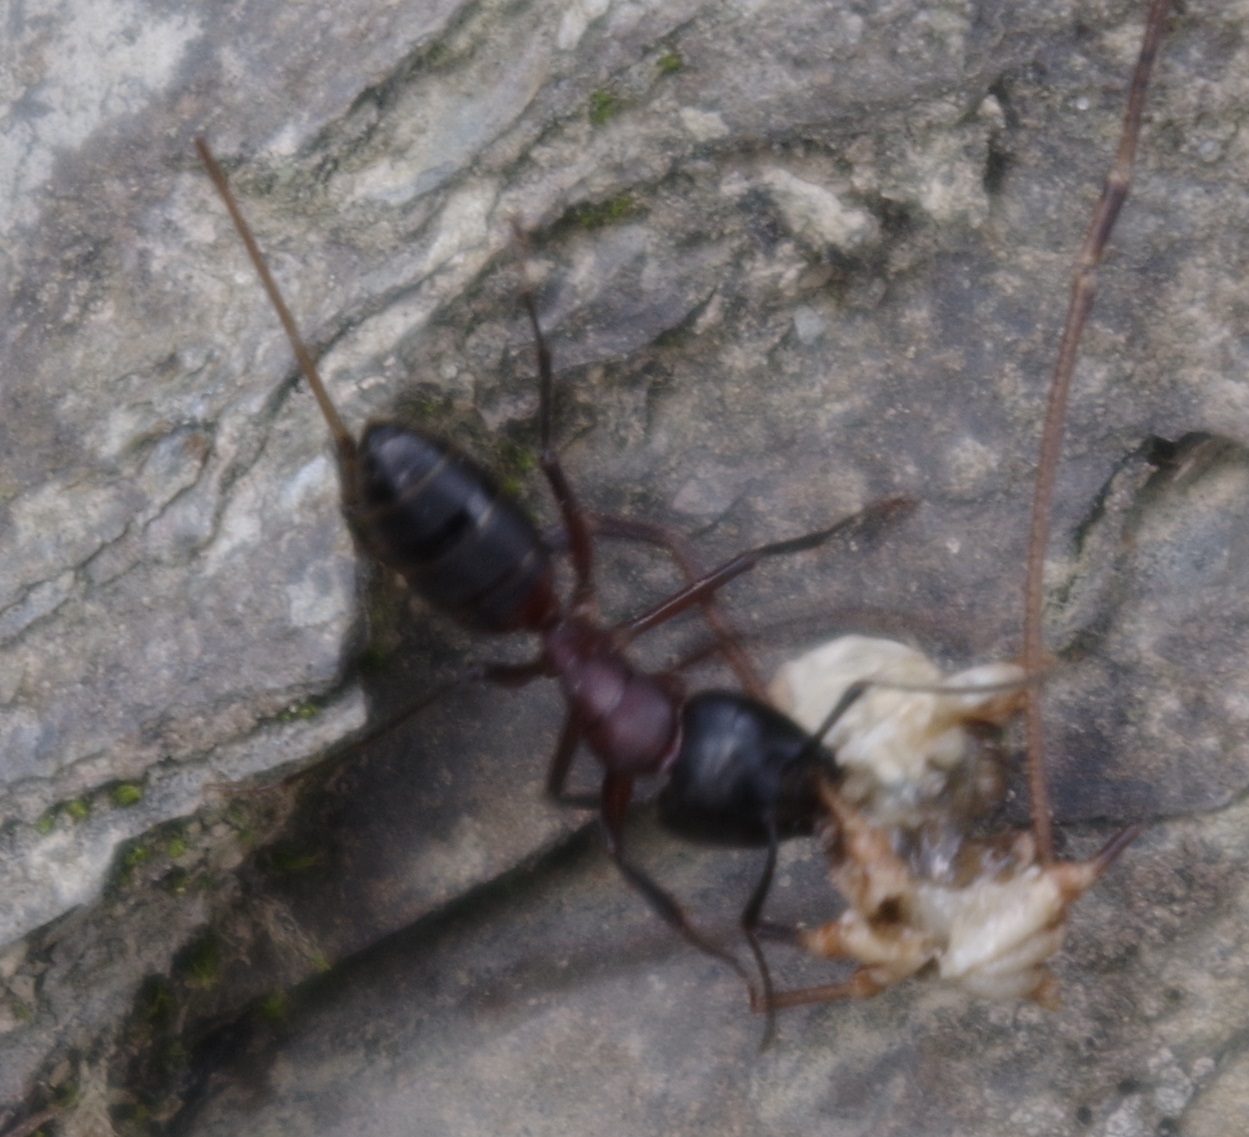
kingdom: Animalia
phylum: Arthropoda
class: Insecta
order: Hymenoptera
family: Formicidae
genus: Camponotus
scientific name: Camponotus ligniperdus
